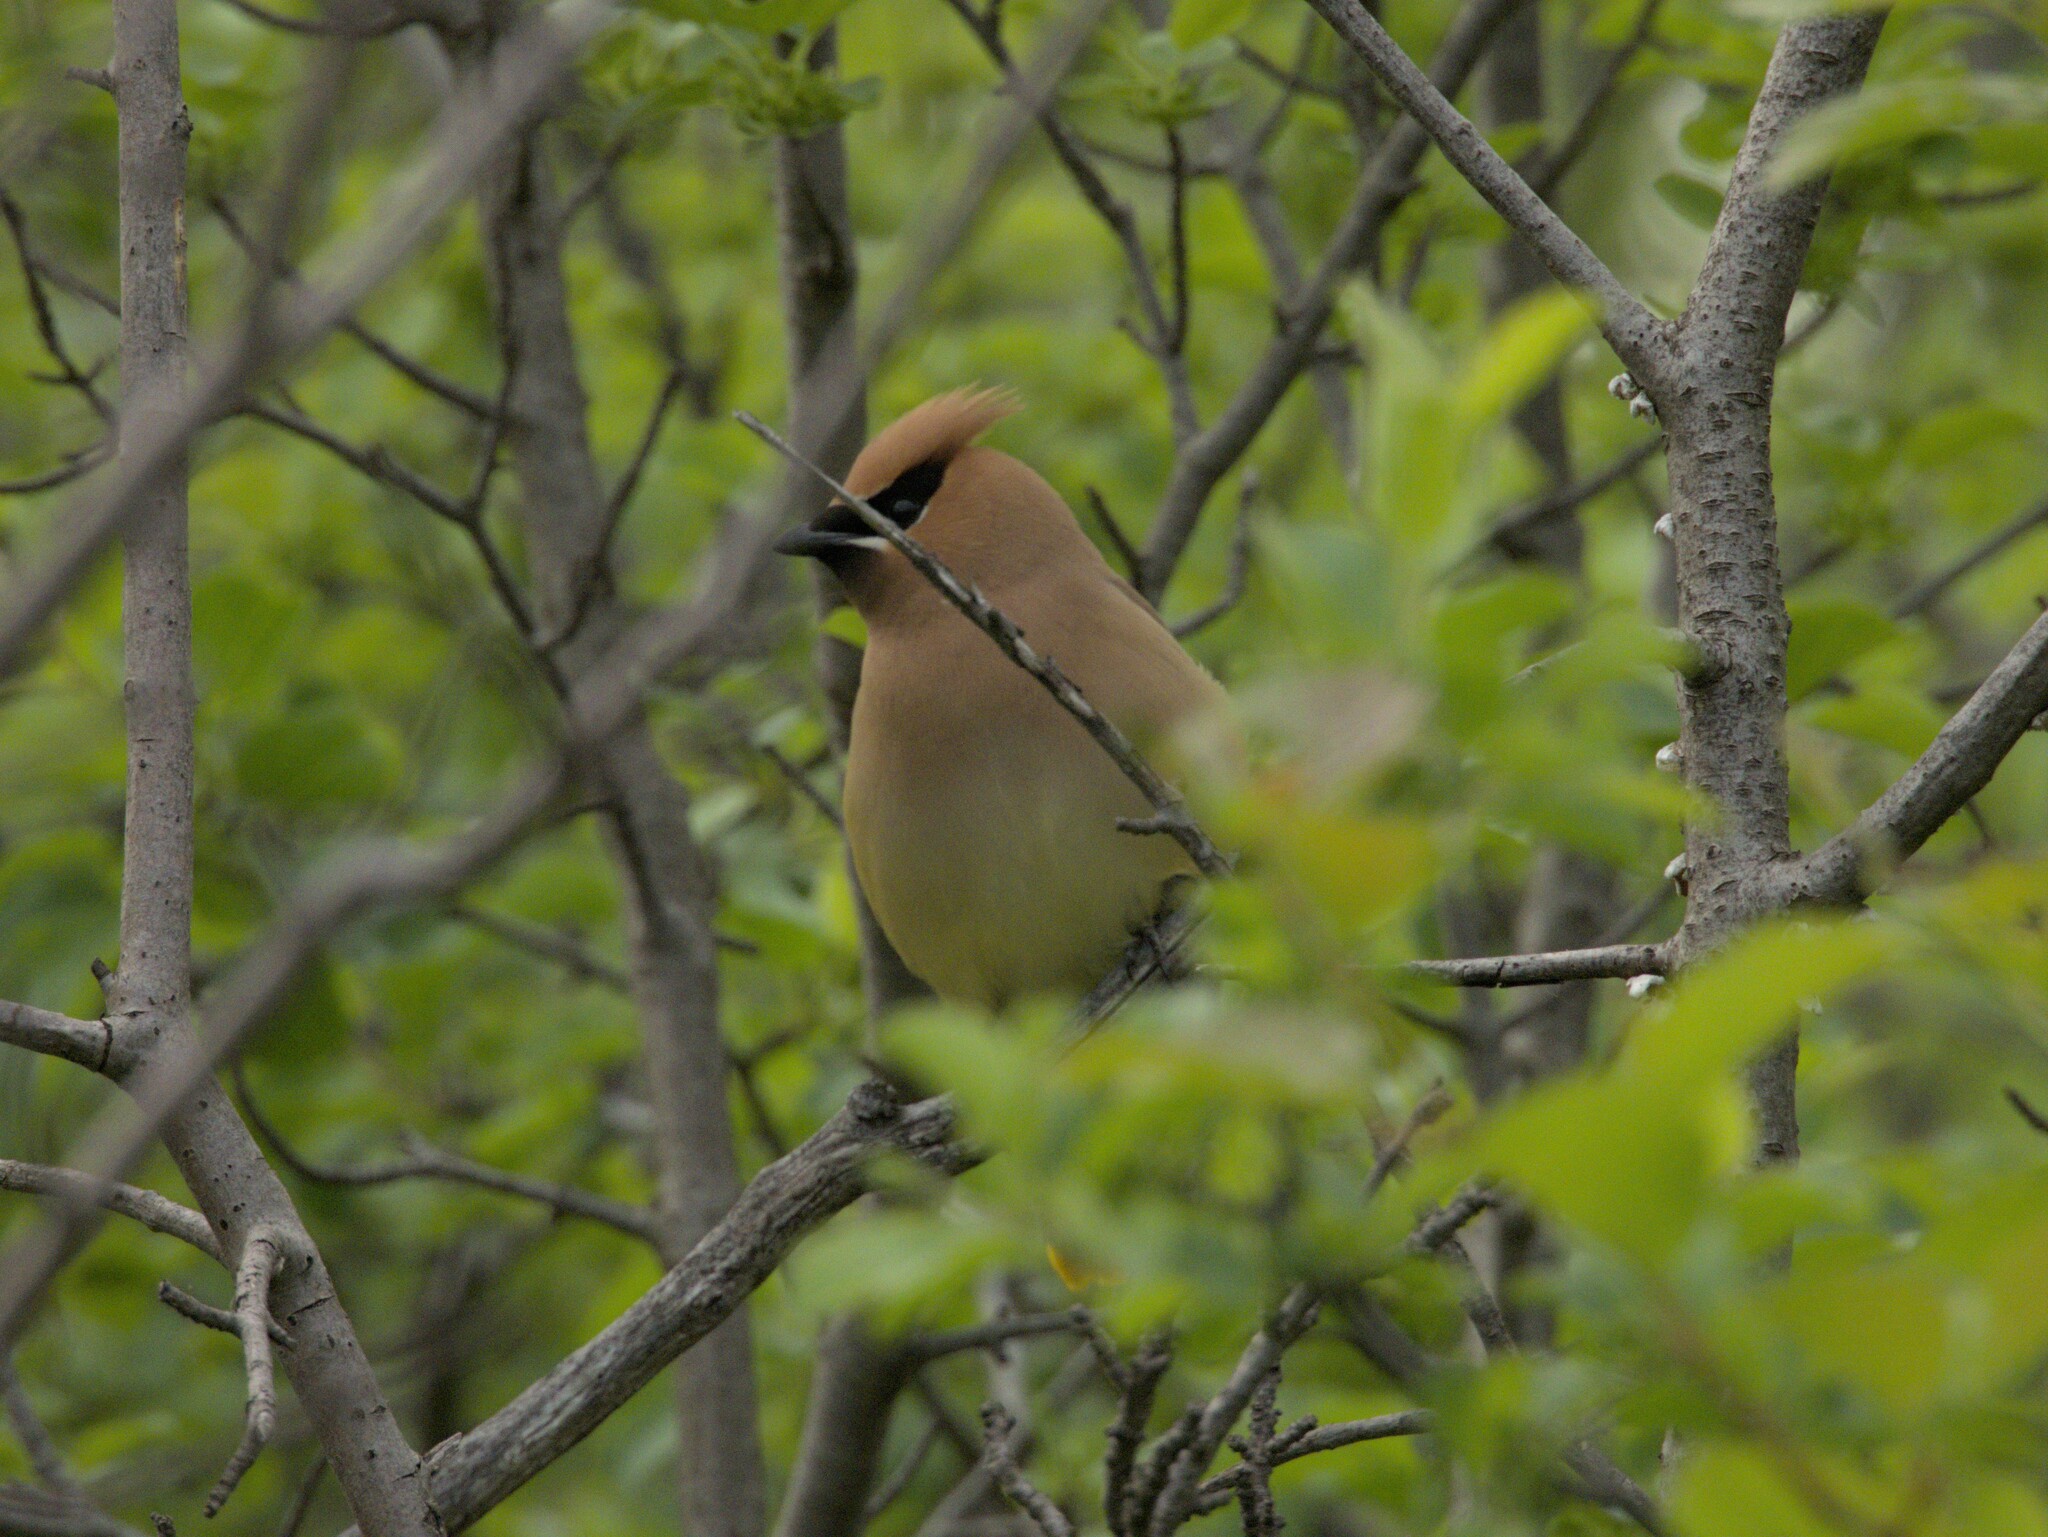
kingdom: Animalia
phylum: Chordata
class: Aves
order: Passeriformes
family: Bombycillidae
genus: Bombycilla
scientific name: Bombycilla cedrorum
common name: Cedar waxwing
